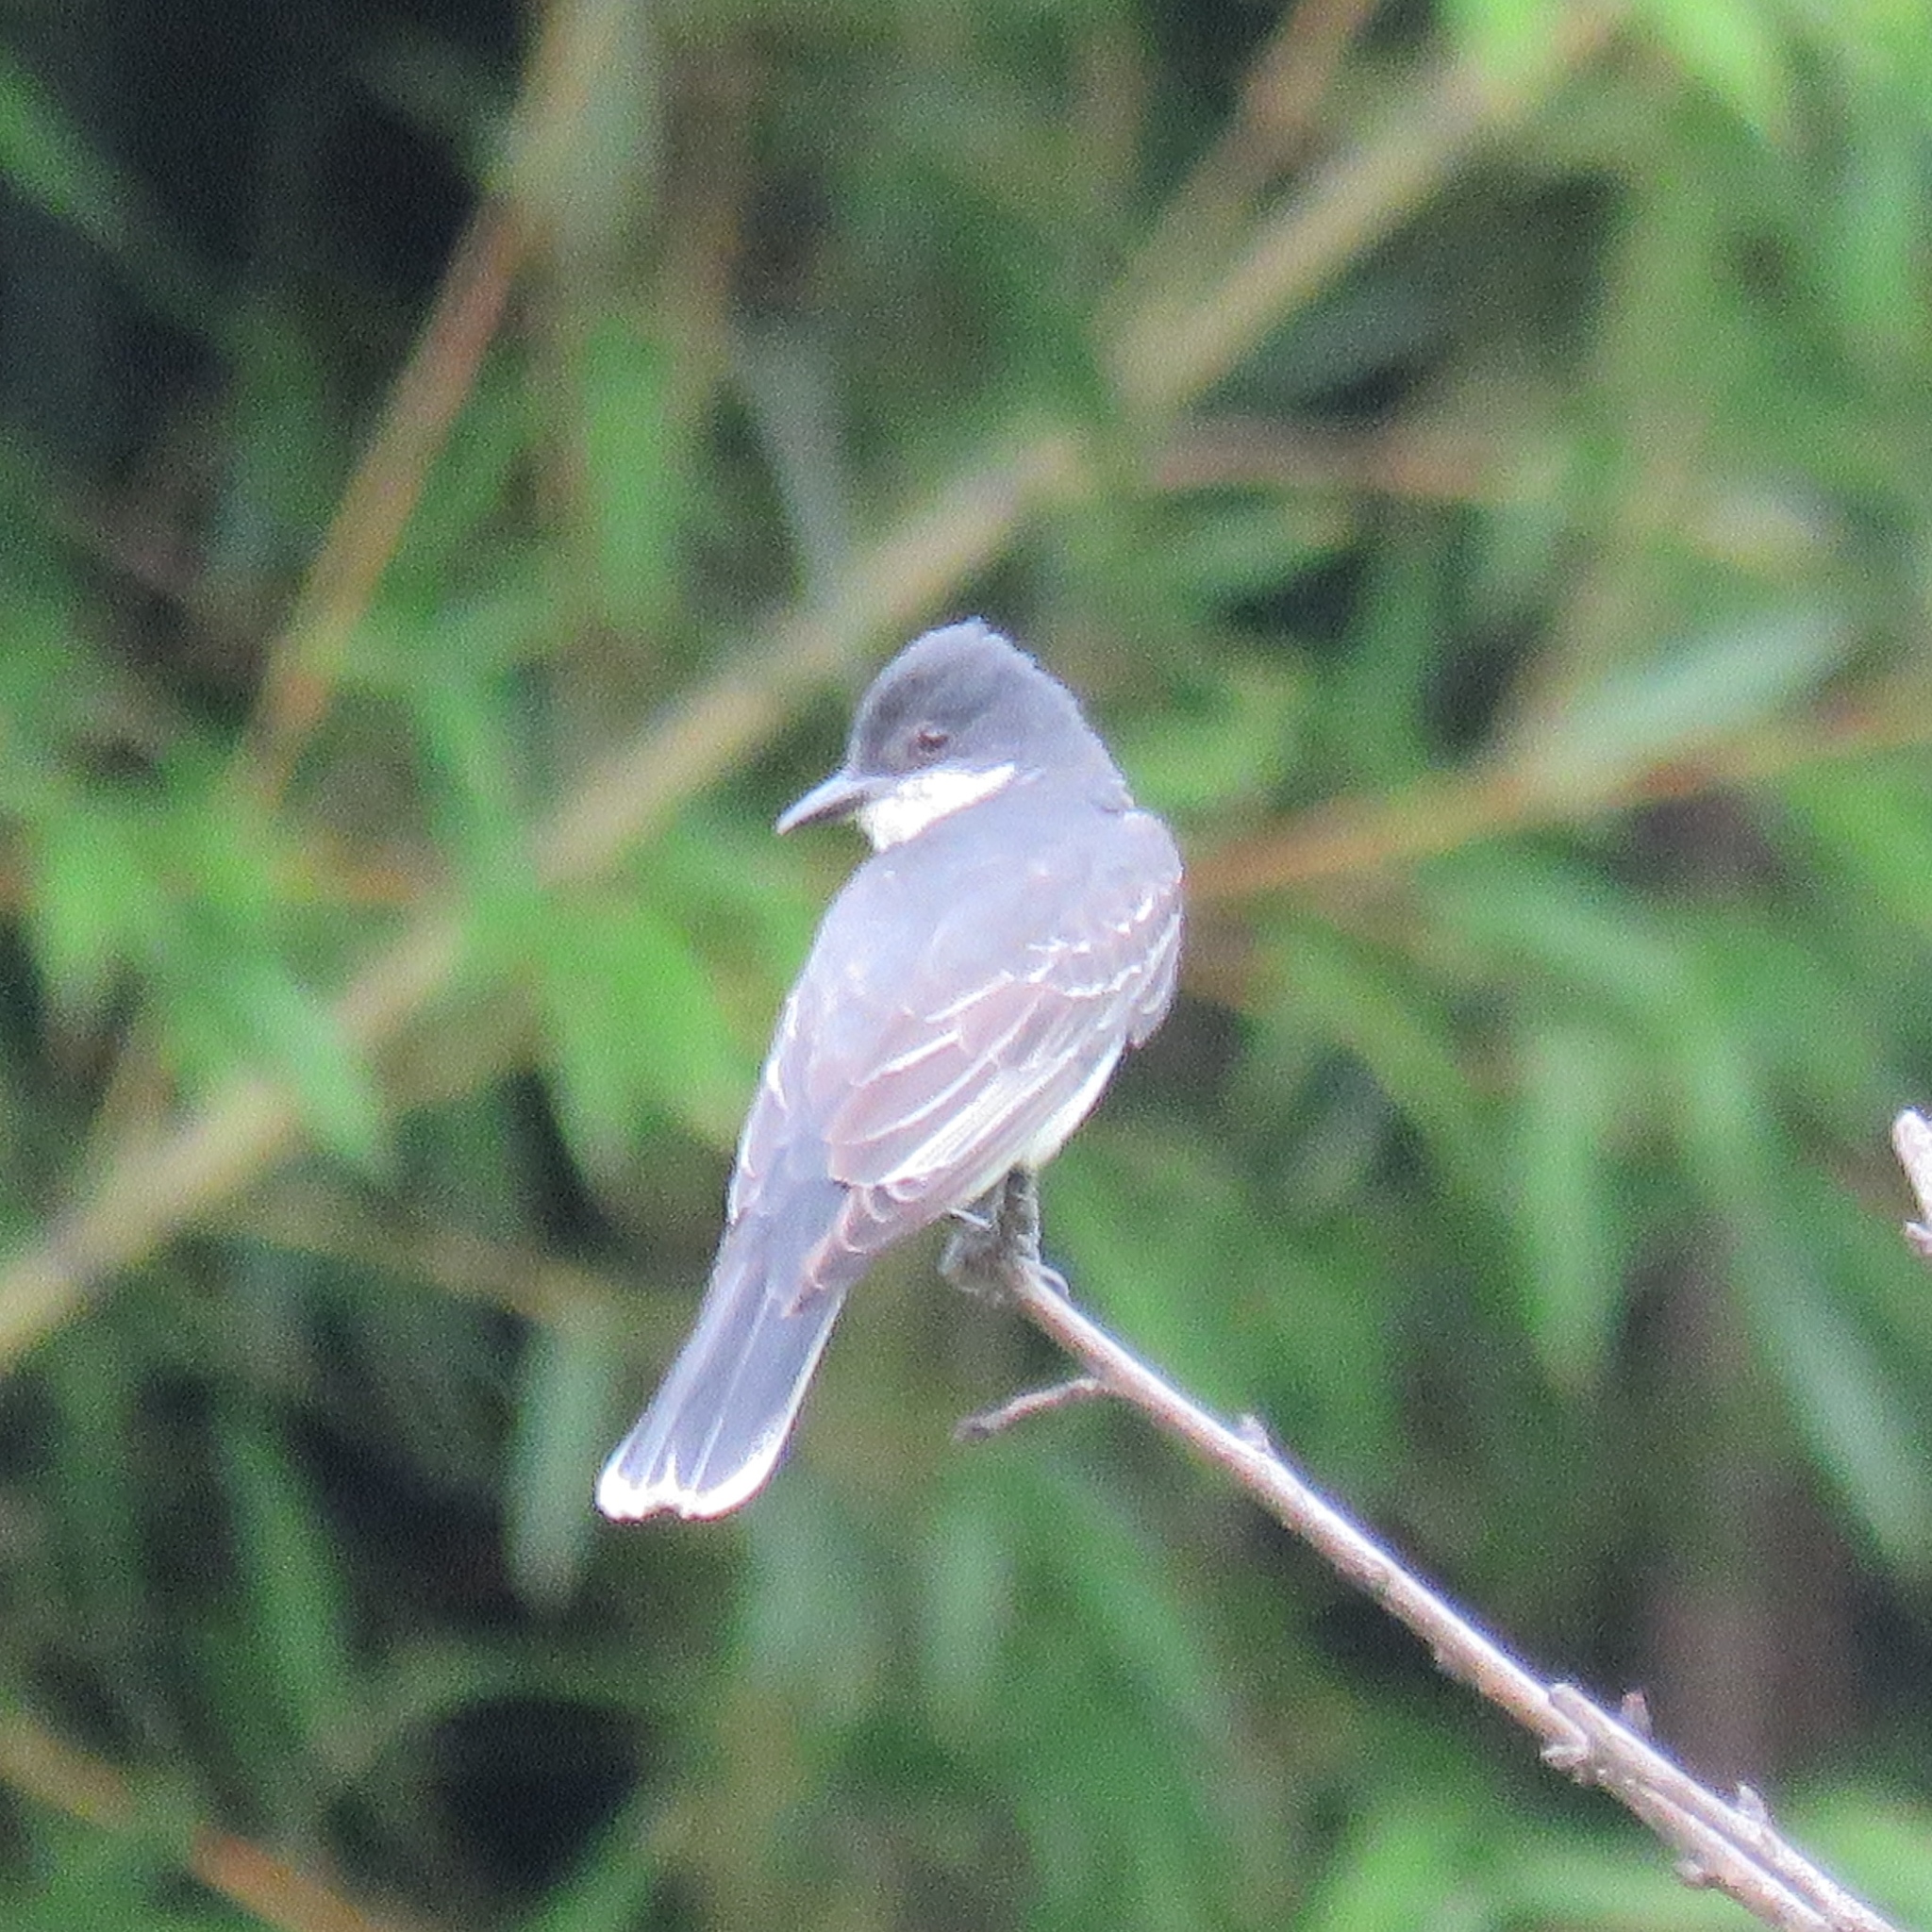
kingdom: Animalia
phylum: Chordata
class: Aves
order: Passeriformes
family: Tyrannidae
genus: Tyrannus
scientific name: Tyrannus tyrannus
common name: Eastern kingbird
